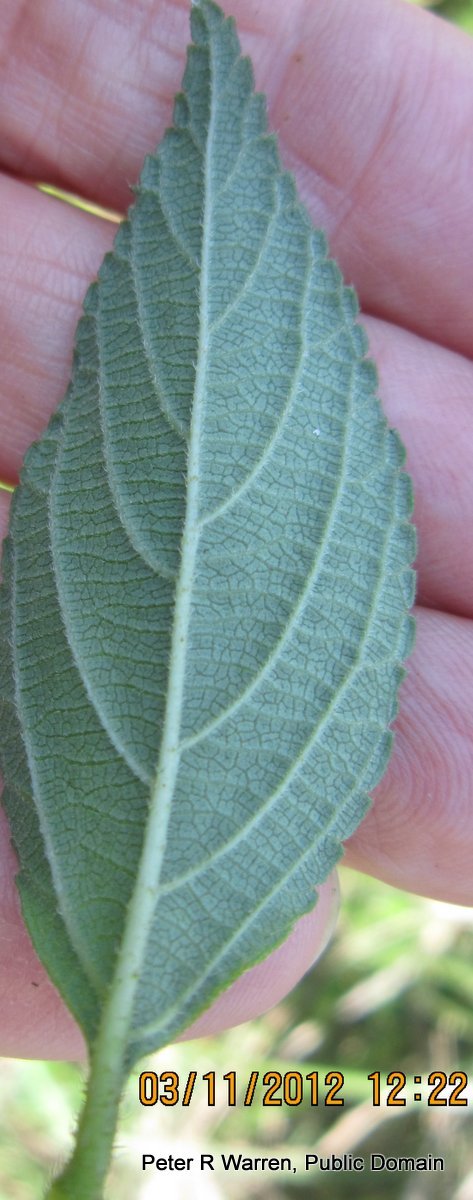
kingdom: Plantae
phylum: Tracheophyta
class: Magnoliopsida
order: Lamiales
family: Verbenaceae
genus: Lantana
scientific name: Lantana camara
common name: Lantana
